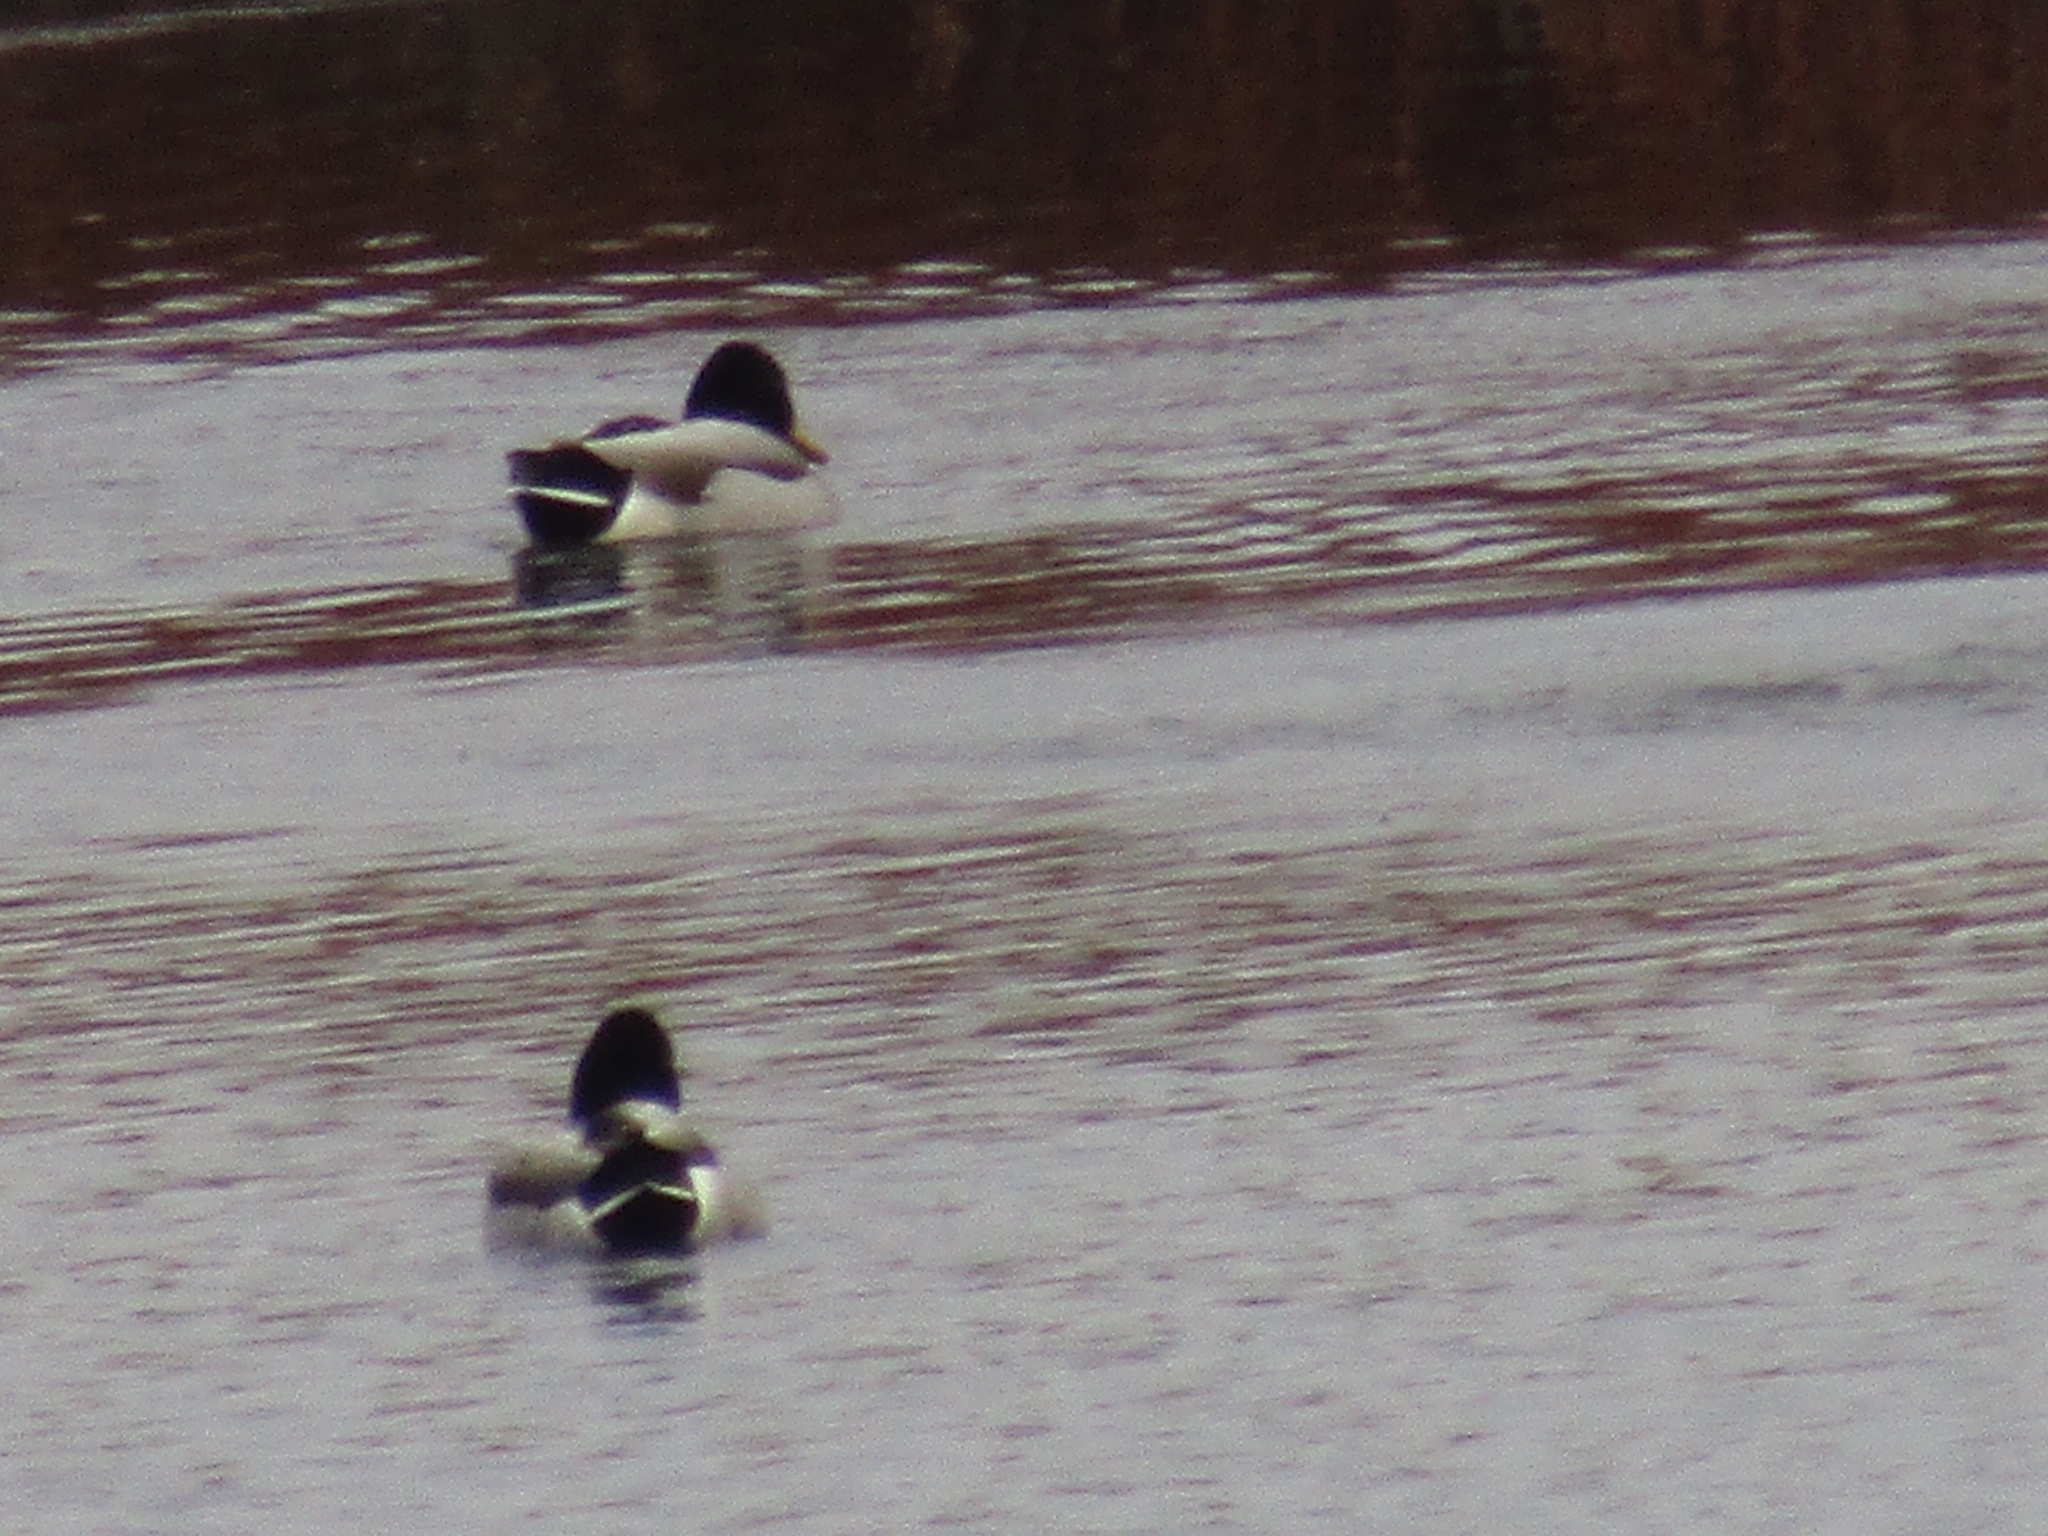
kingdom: Animalia
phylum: Chordata
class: Aves
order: Anseriformes
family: Anatidae
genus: Anas
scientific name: Anas platyrhynchos
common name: Mallard
